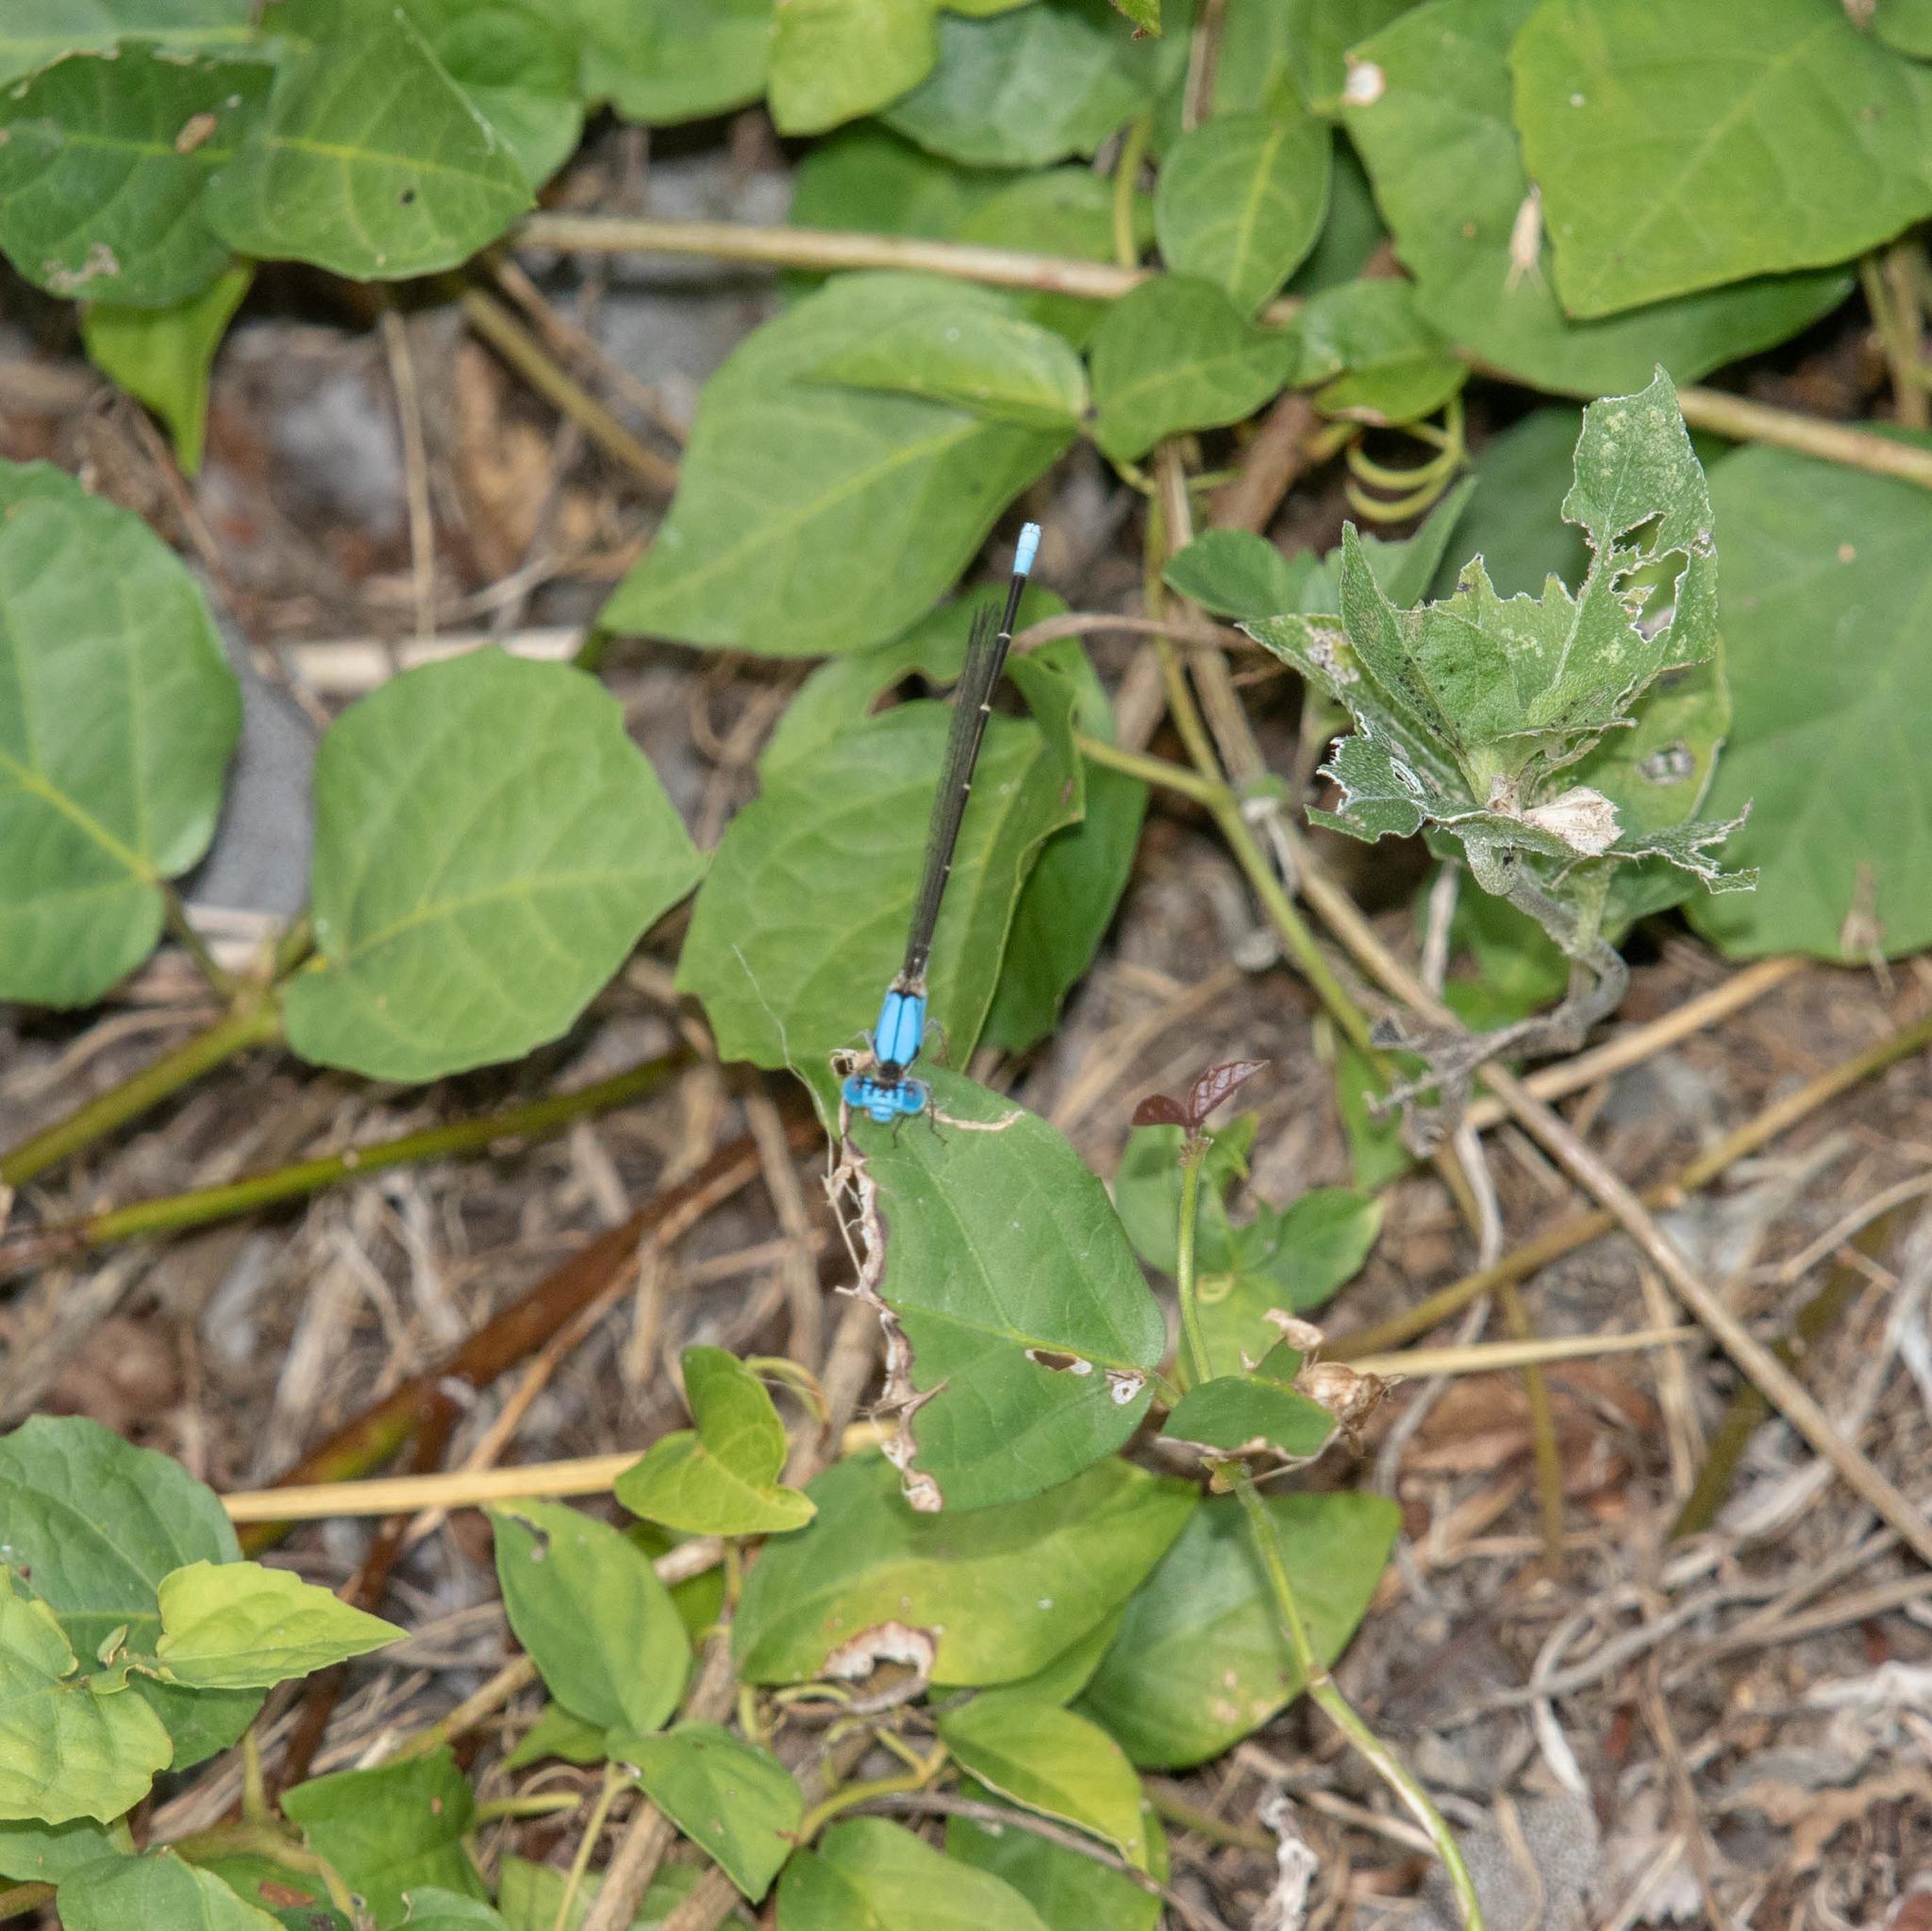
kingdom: Animalia
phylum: Arthropoda
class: Insecta
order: Odonata
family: Coenagrionidae
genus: Argia
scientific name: Argia apicalis
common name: Blue-fronted dancer
